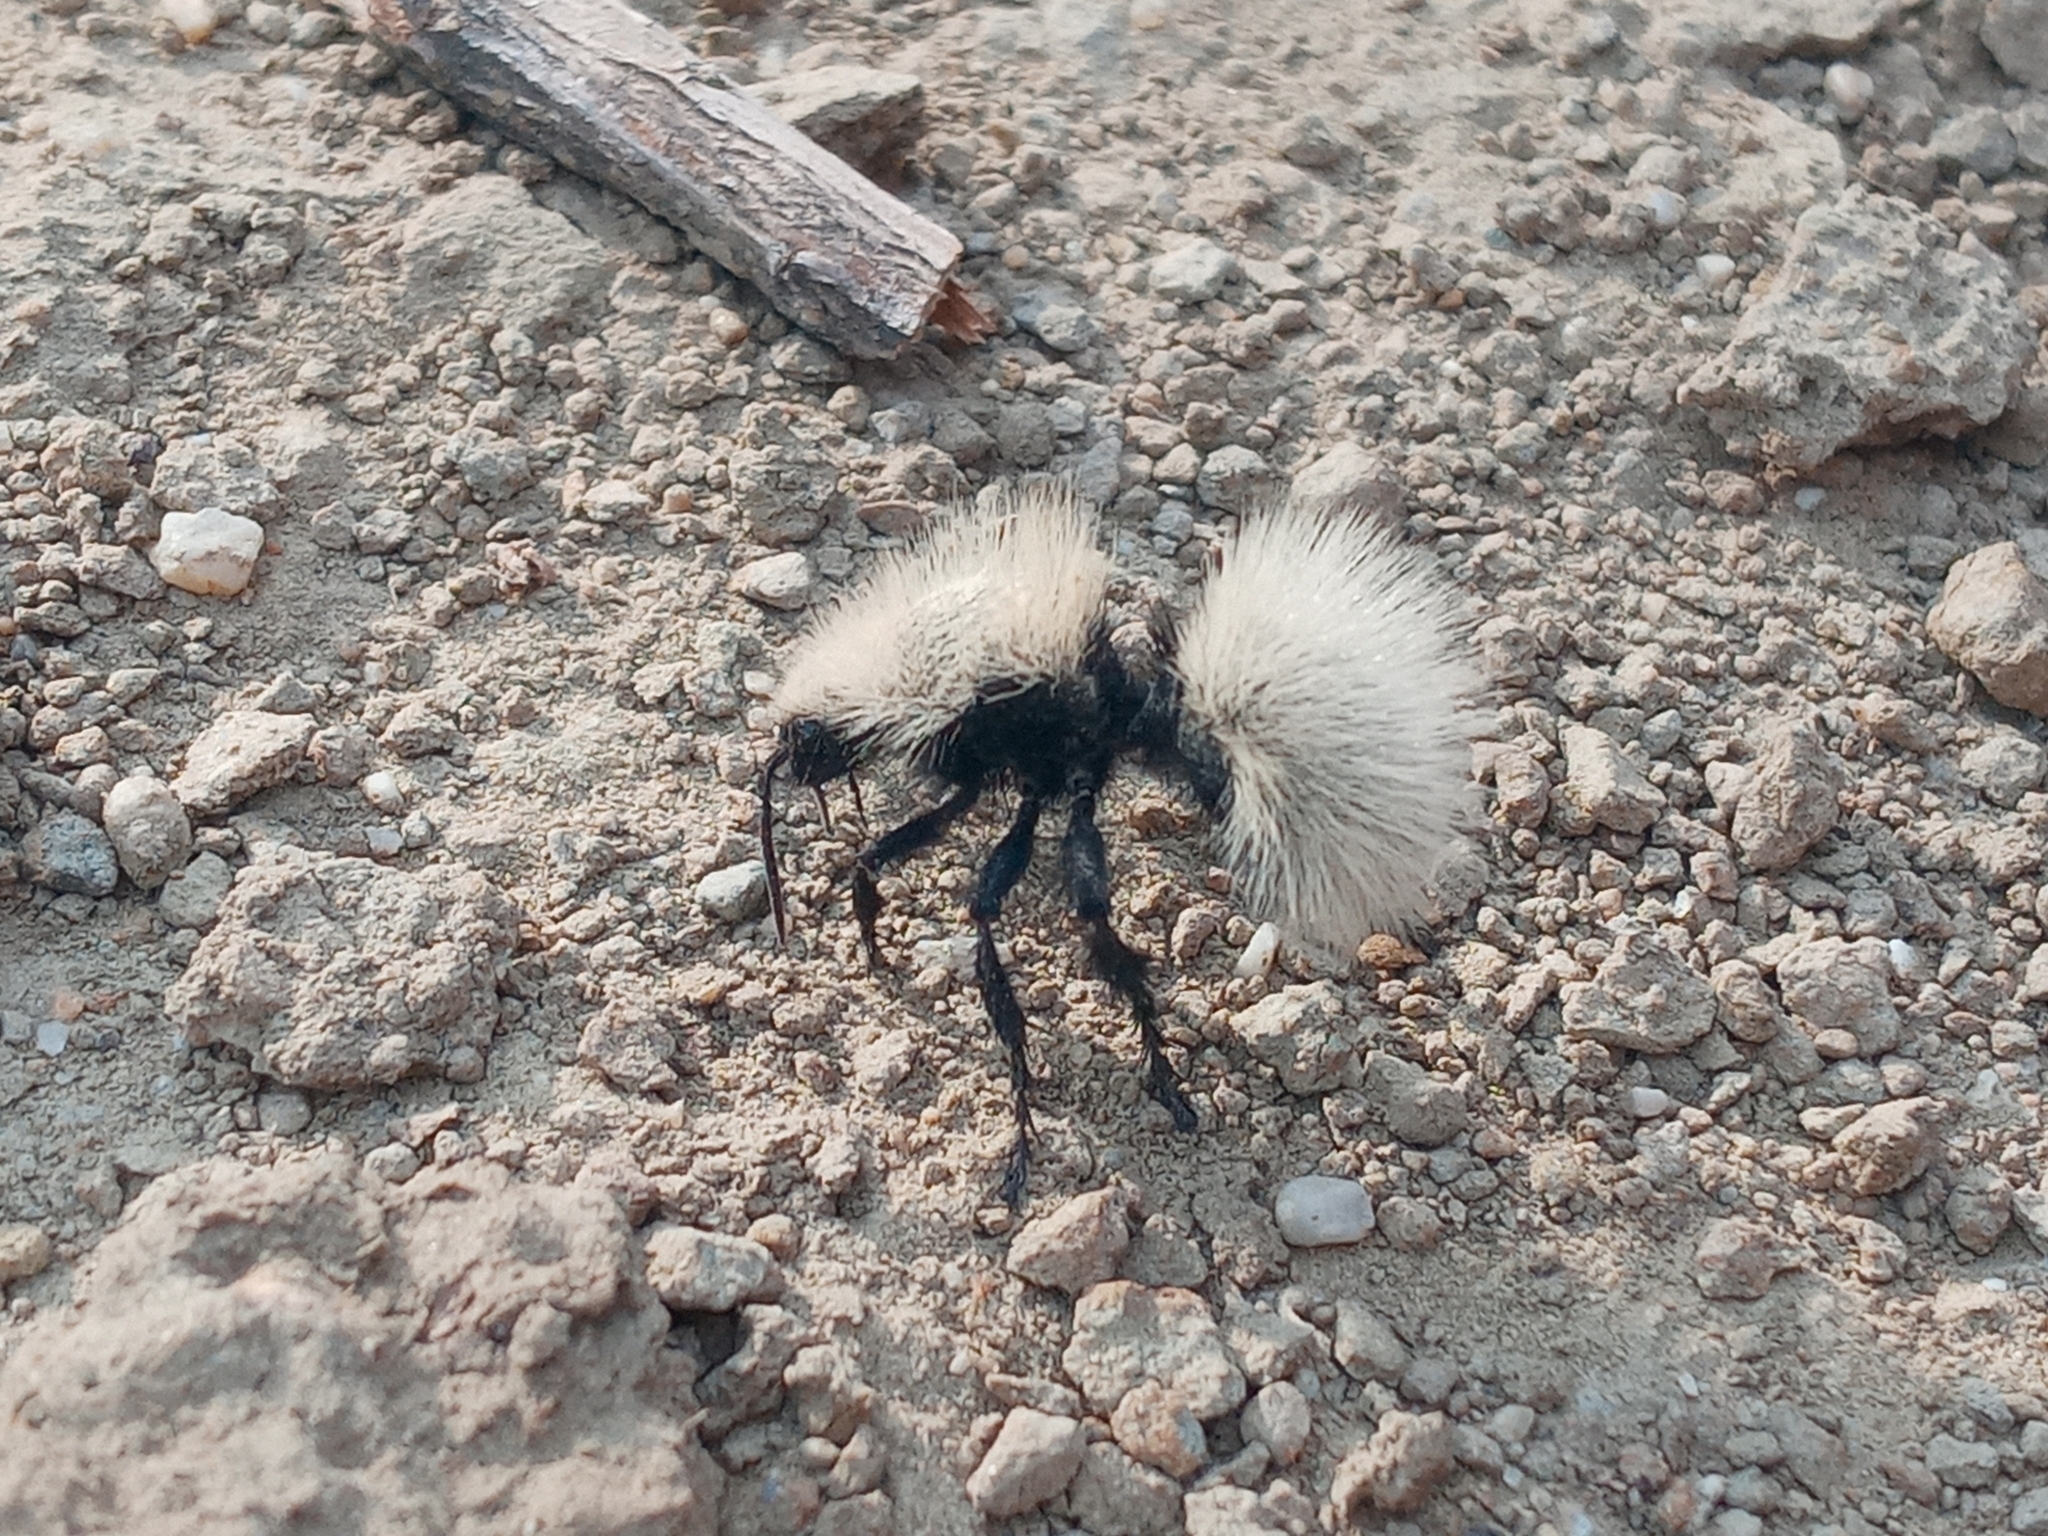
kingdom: Animalia
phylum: Arthropoda
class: Insecta
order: Hymenoptera
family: Mutillidae
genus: Dasymutilla
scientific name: Dasymutilla
